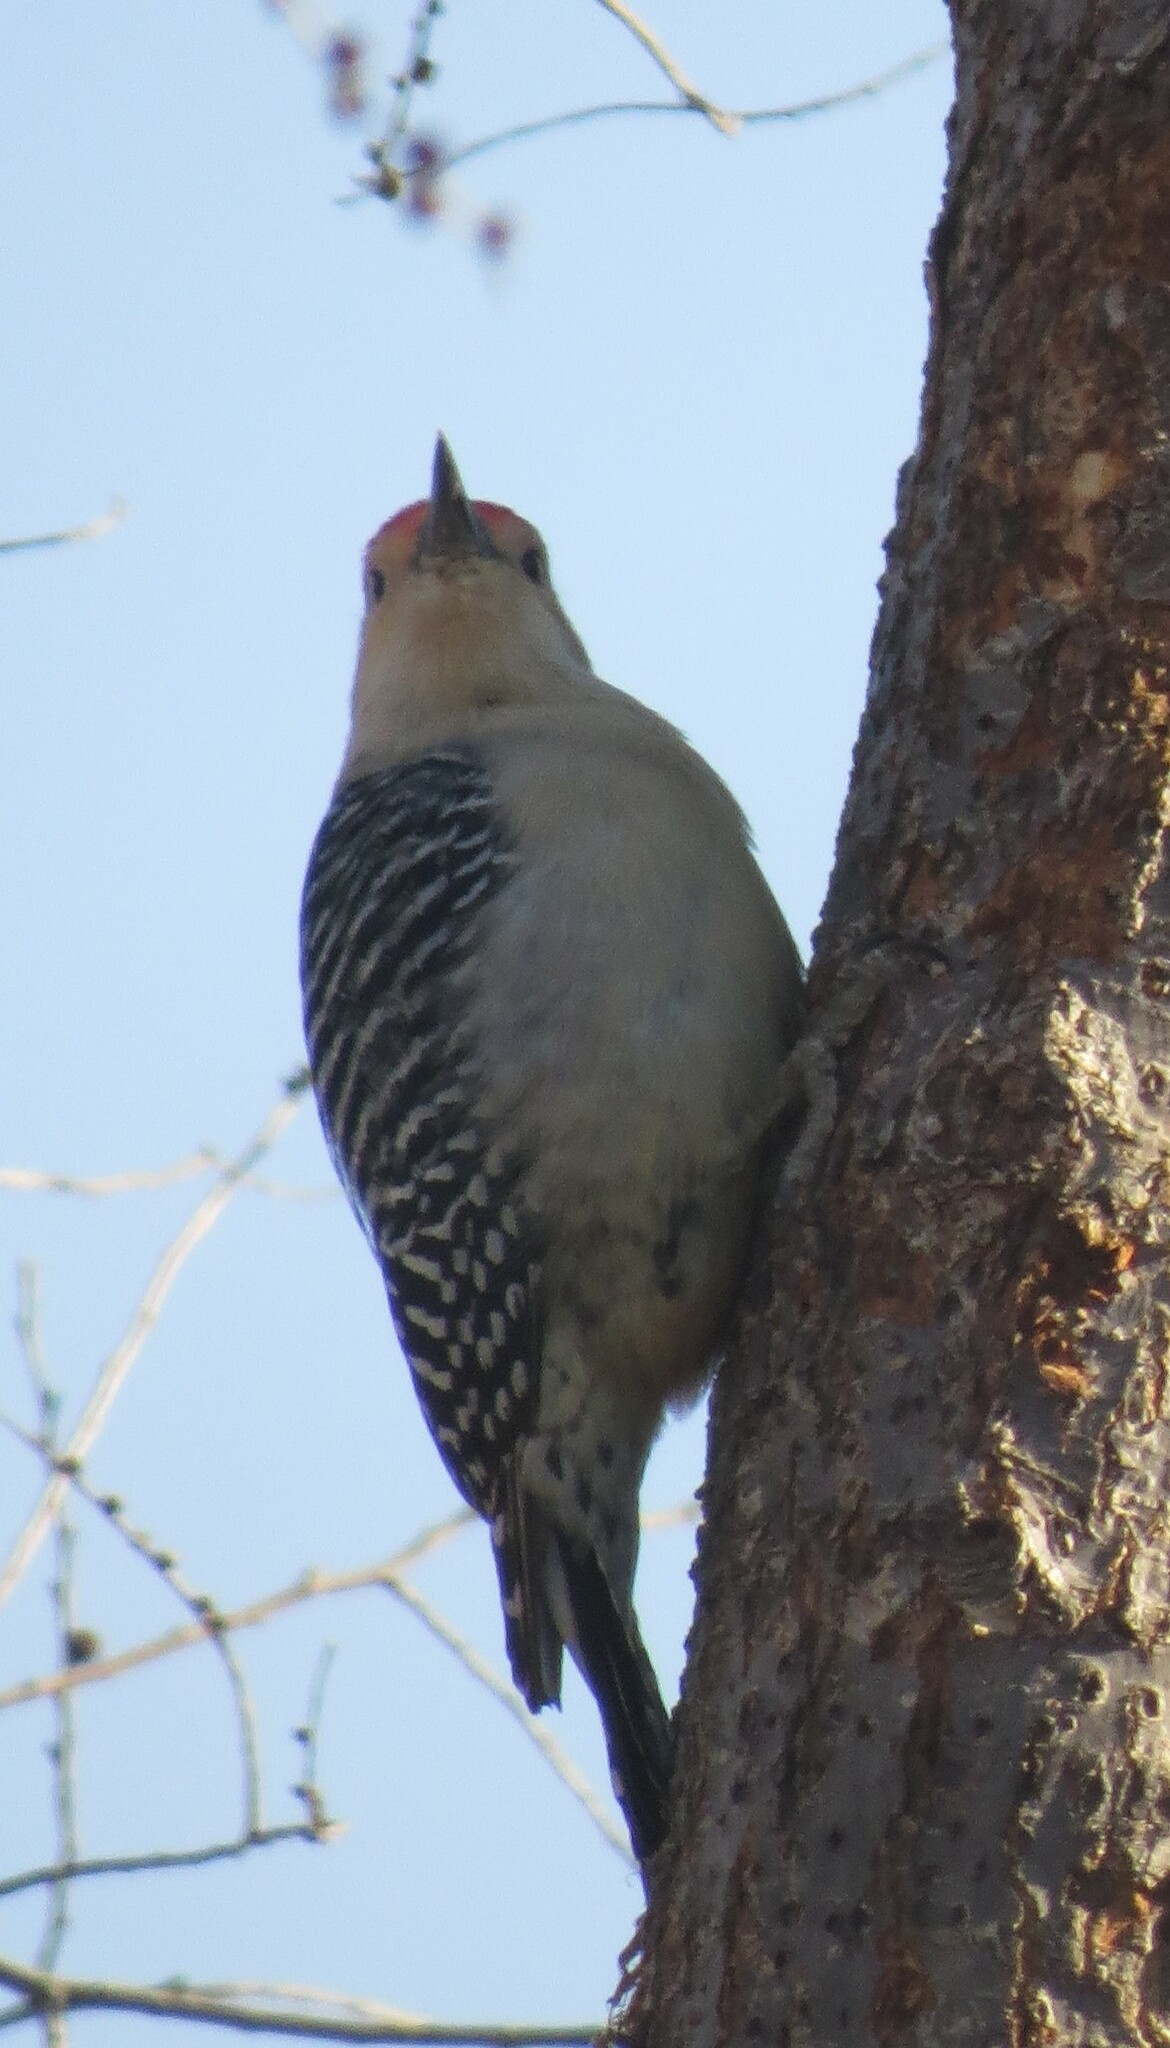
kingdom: Animalia
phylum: Chordata
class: Aves
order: Piciformes
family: Picidae
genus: Melanerpes
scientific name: Melanerpes carolinus
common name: Red-bellied woodpecker
